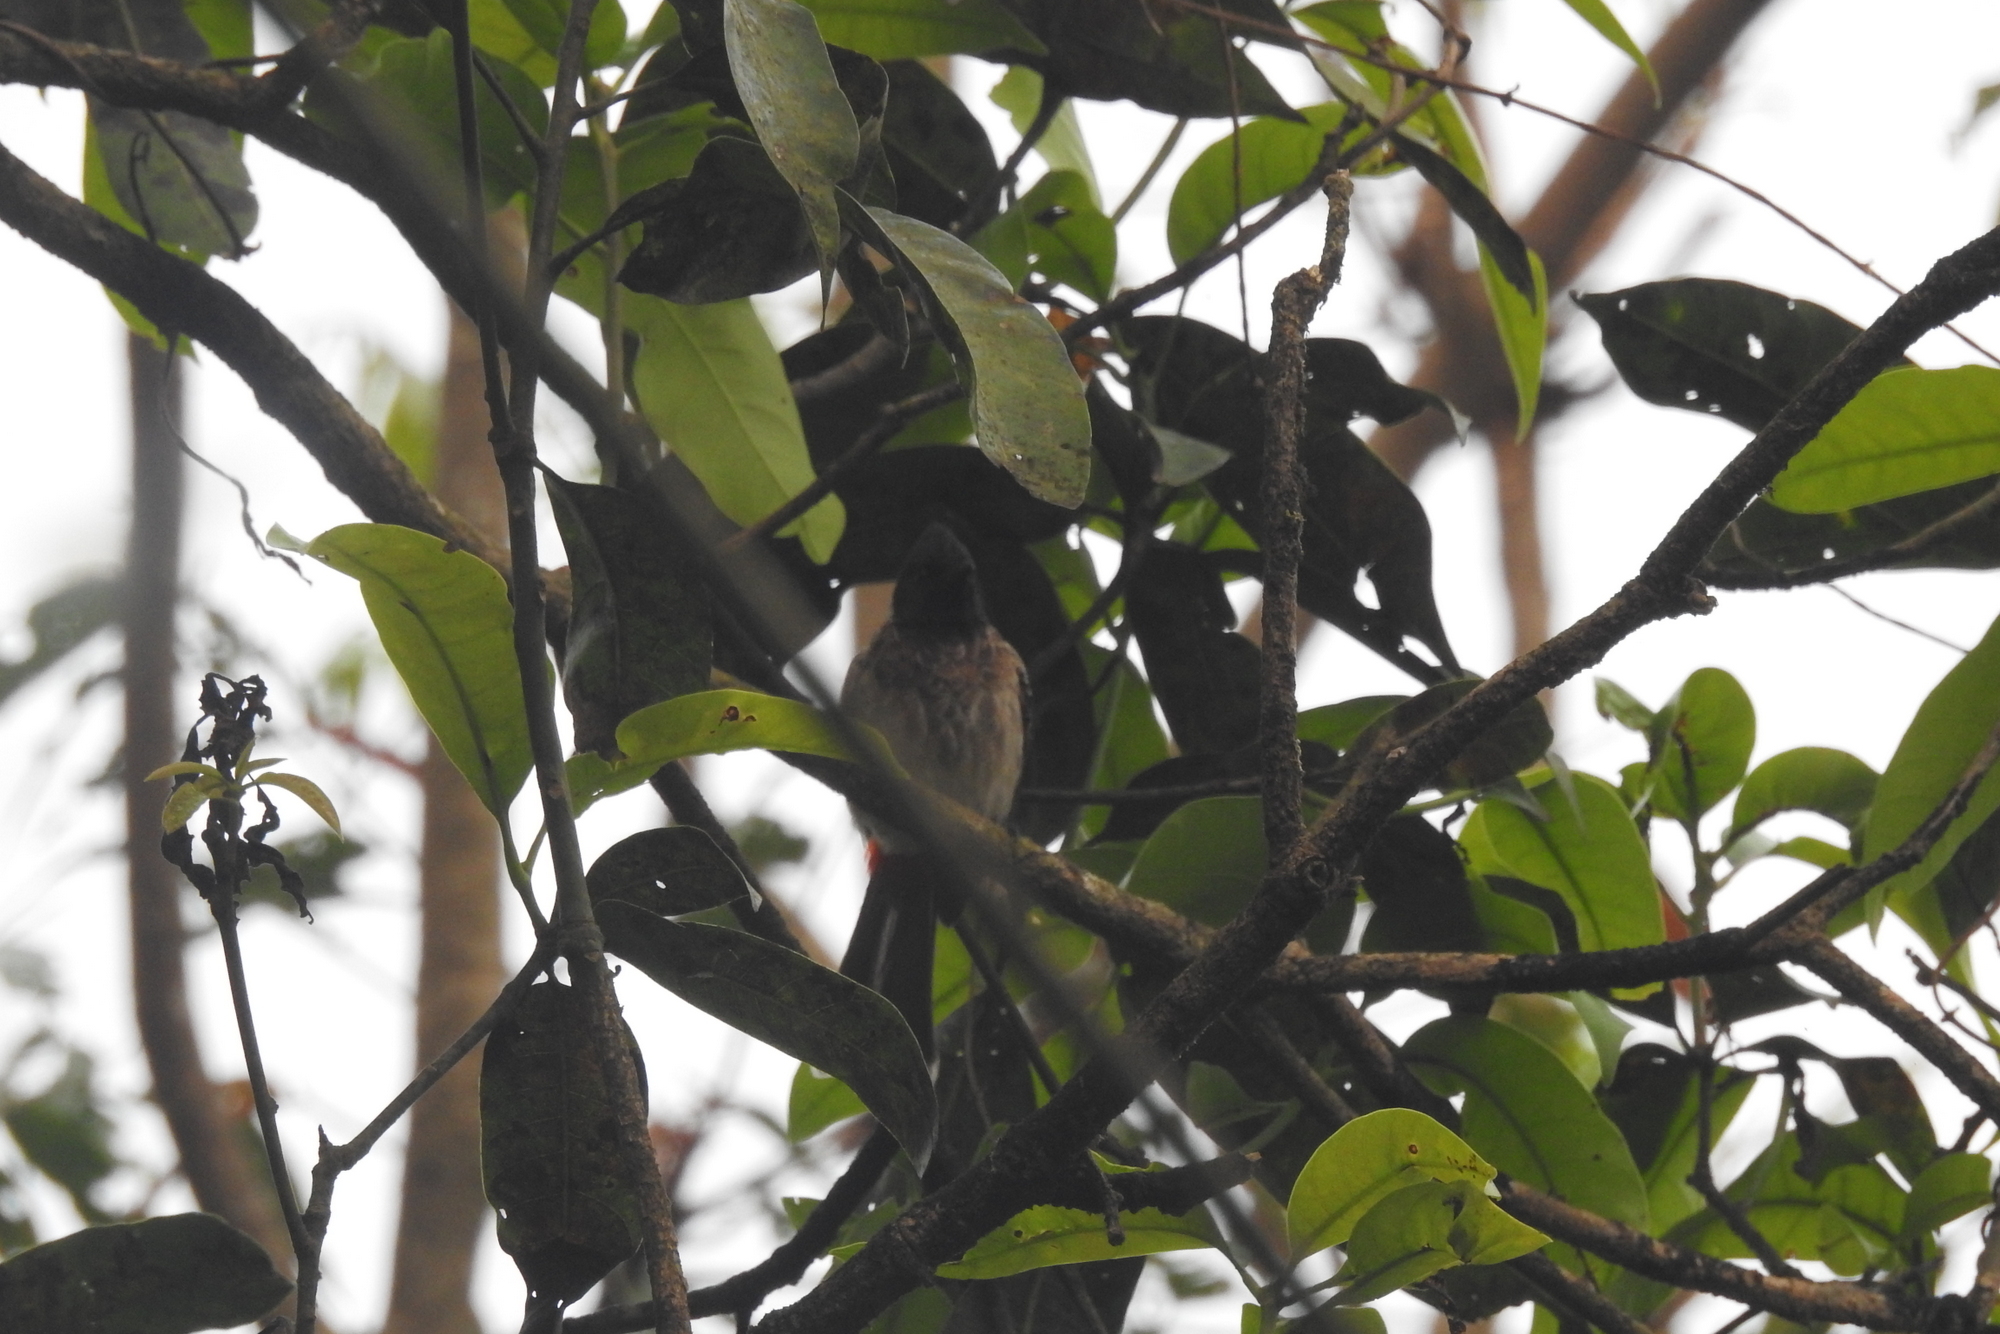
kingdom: Animalia
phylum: Chordata
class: Aves
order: Passeriformes
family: Pycnonotidae
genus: Pycnonotus
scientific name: Pycnonotus cafer
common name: Red-vented bulbul
